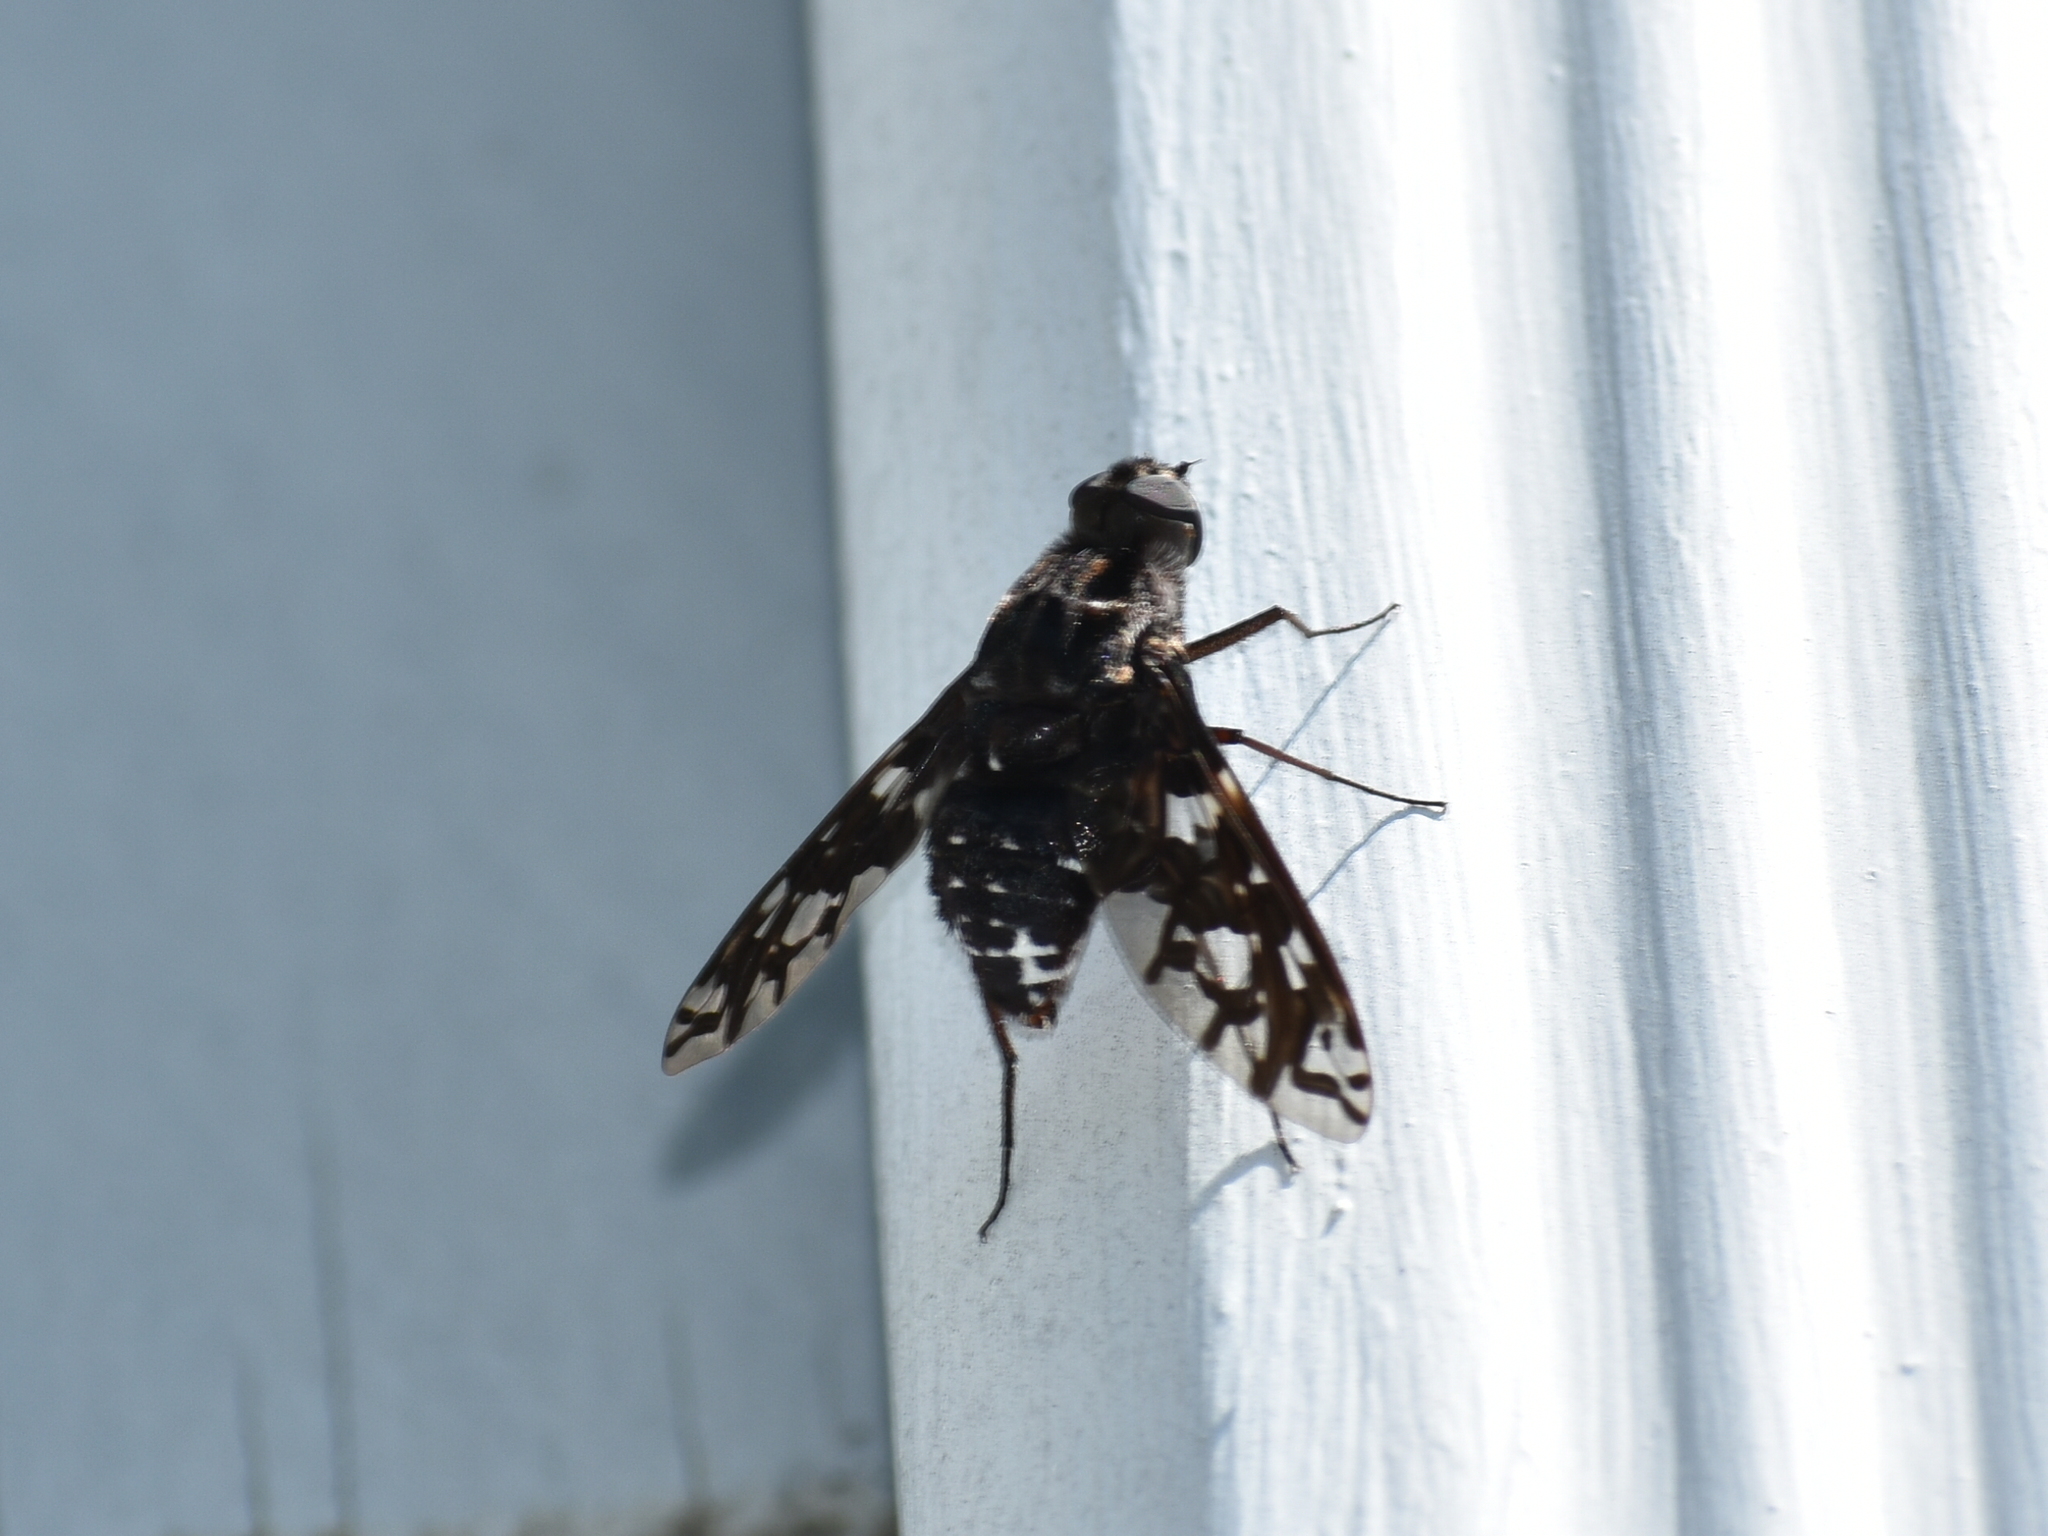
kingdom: Animalia
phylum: Arthropoda
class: Insecta
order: Diptera
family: Bombyliidae
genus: Xenox
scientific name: Xenox tigrinus
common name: Tiger bee fly
